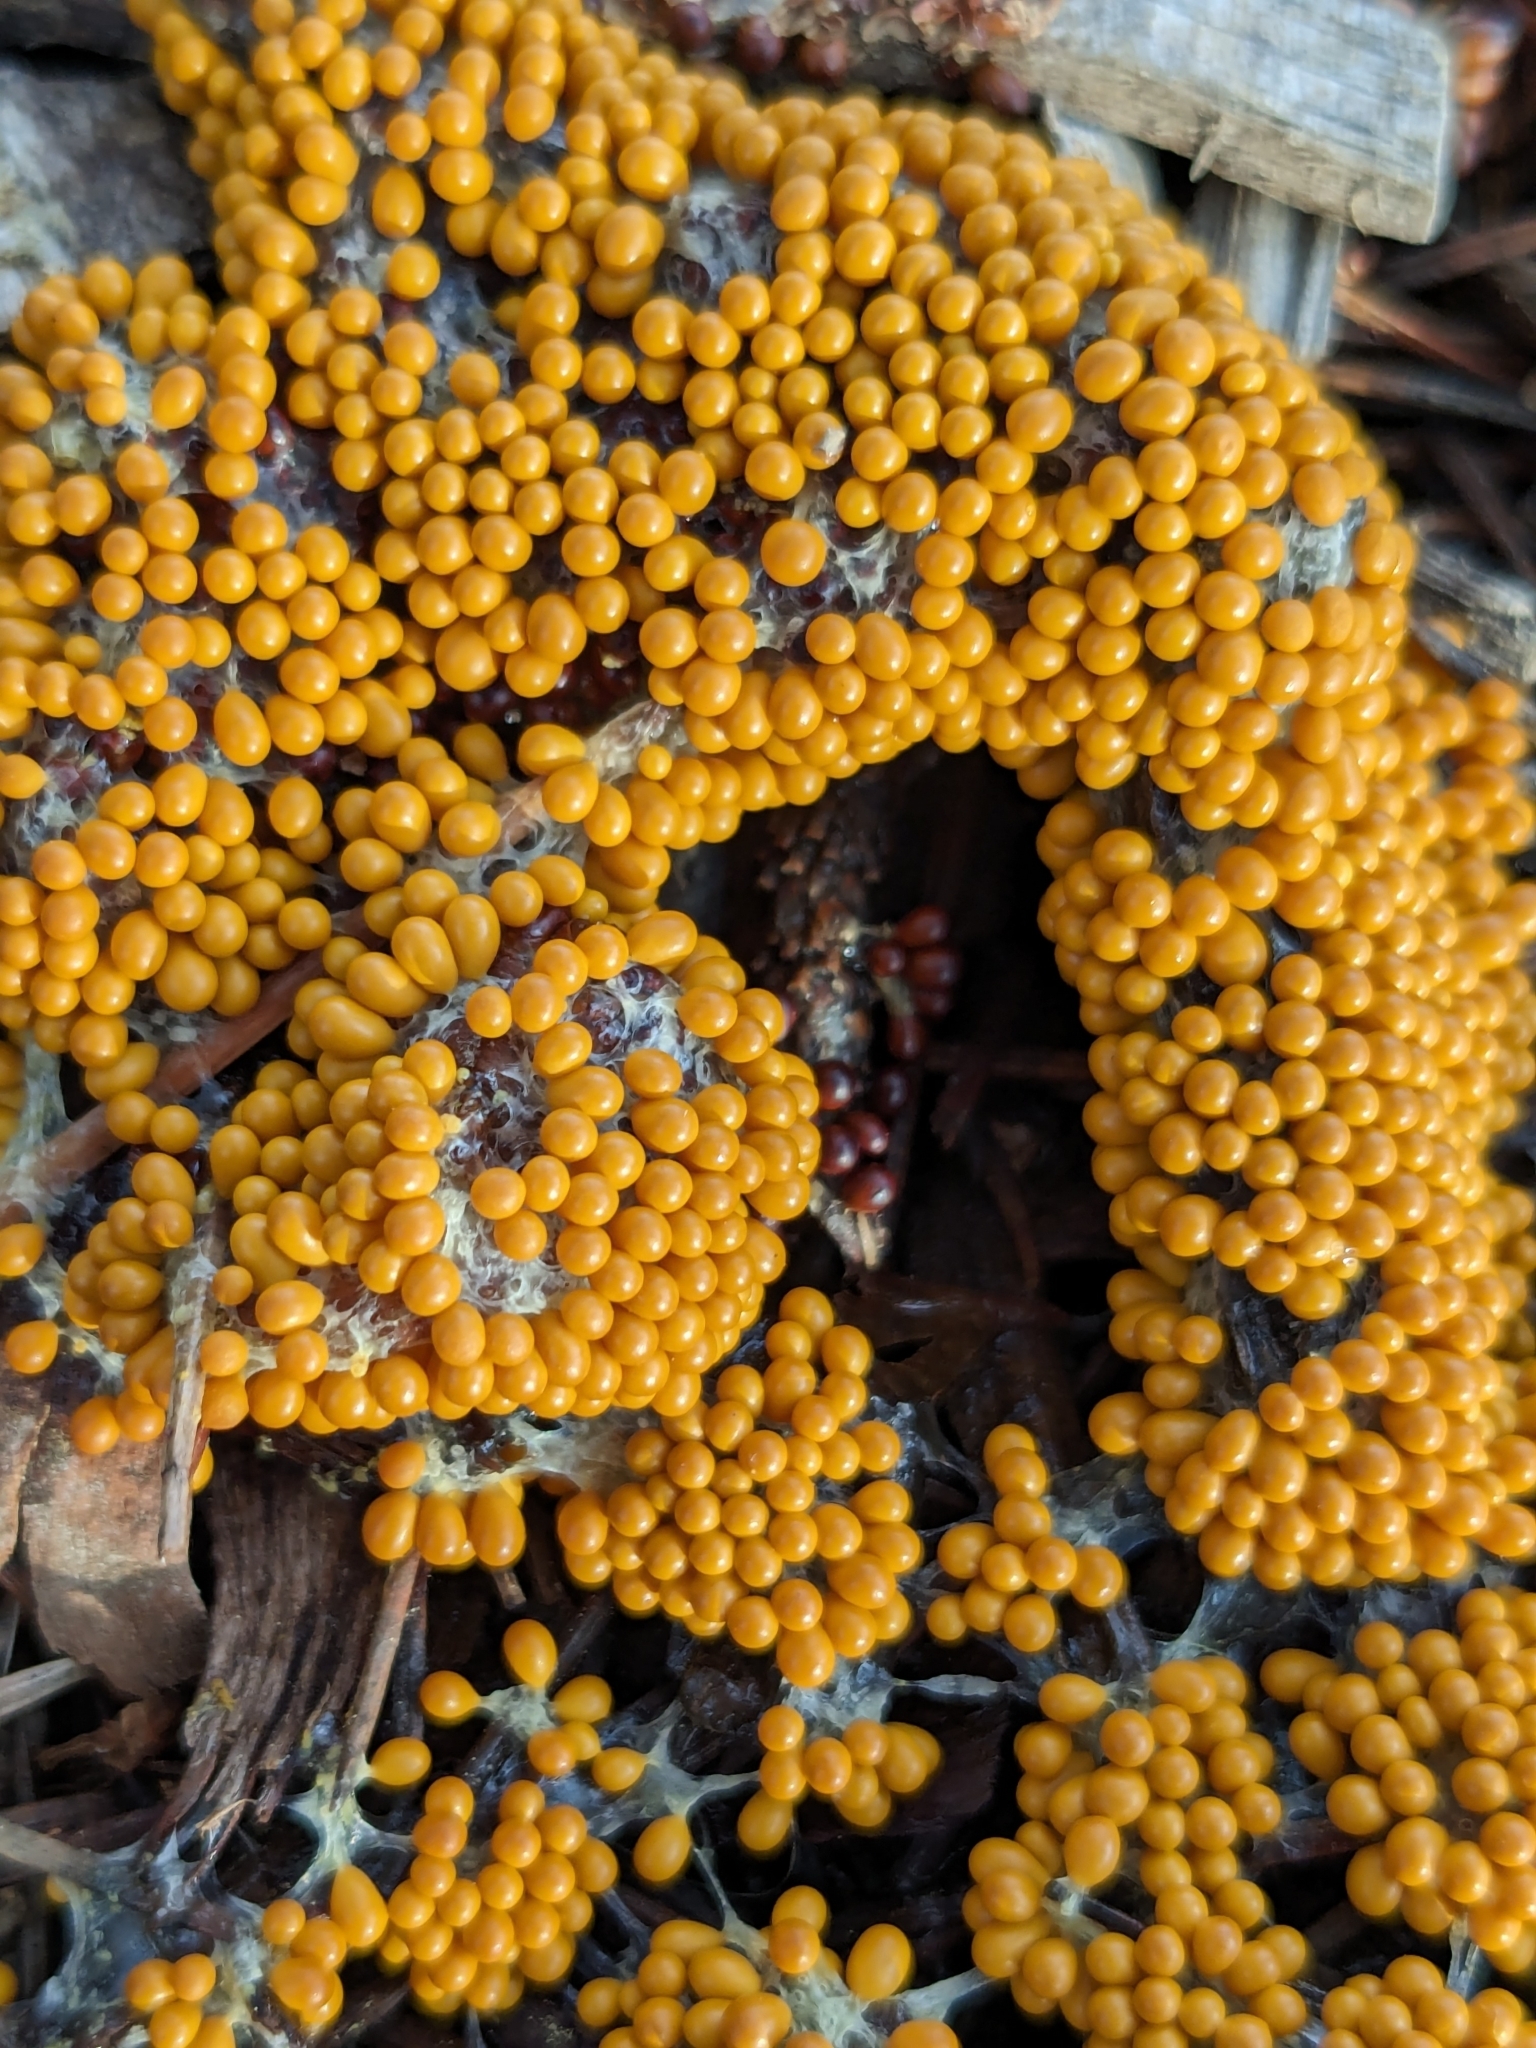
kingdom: Protozoa
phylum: Mycetozoa
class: Myxomycetes
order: Physarales
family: Physaraceae
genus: Leocarpus
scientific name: Leocarpus fragilis
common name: Insect-egg slime
